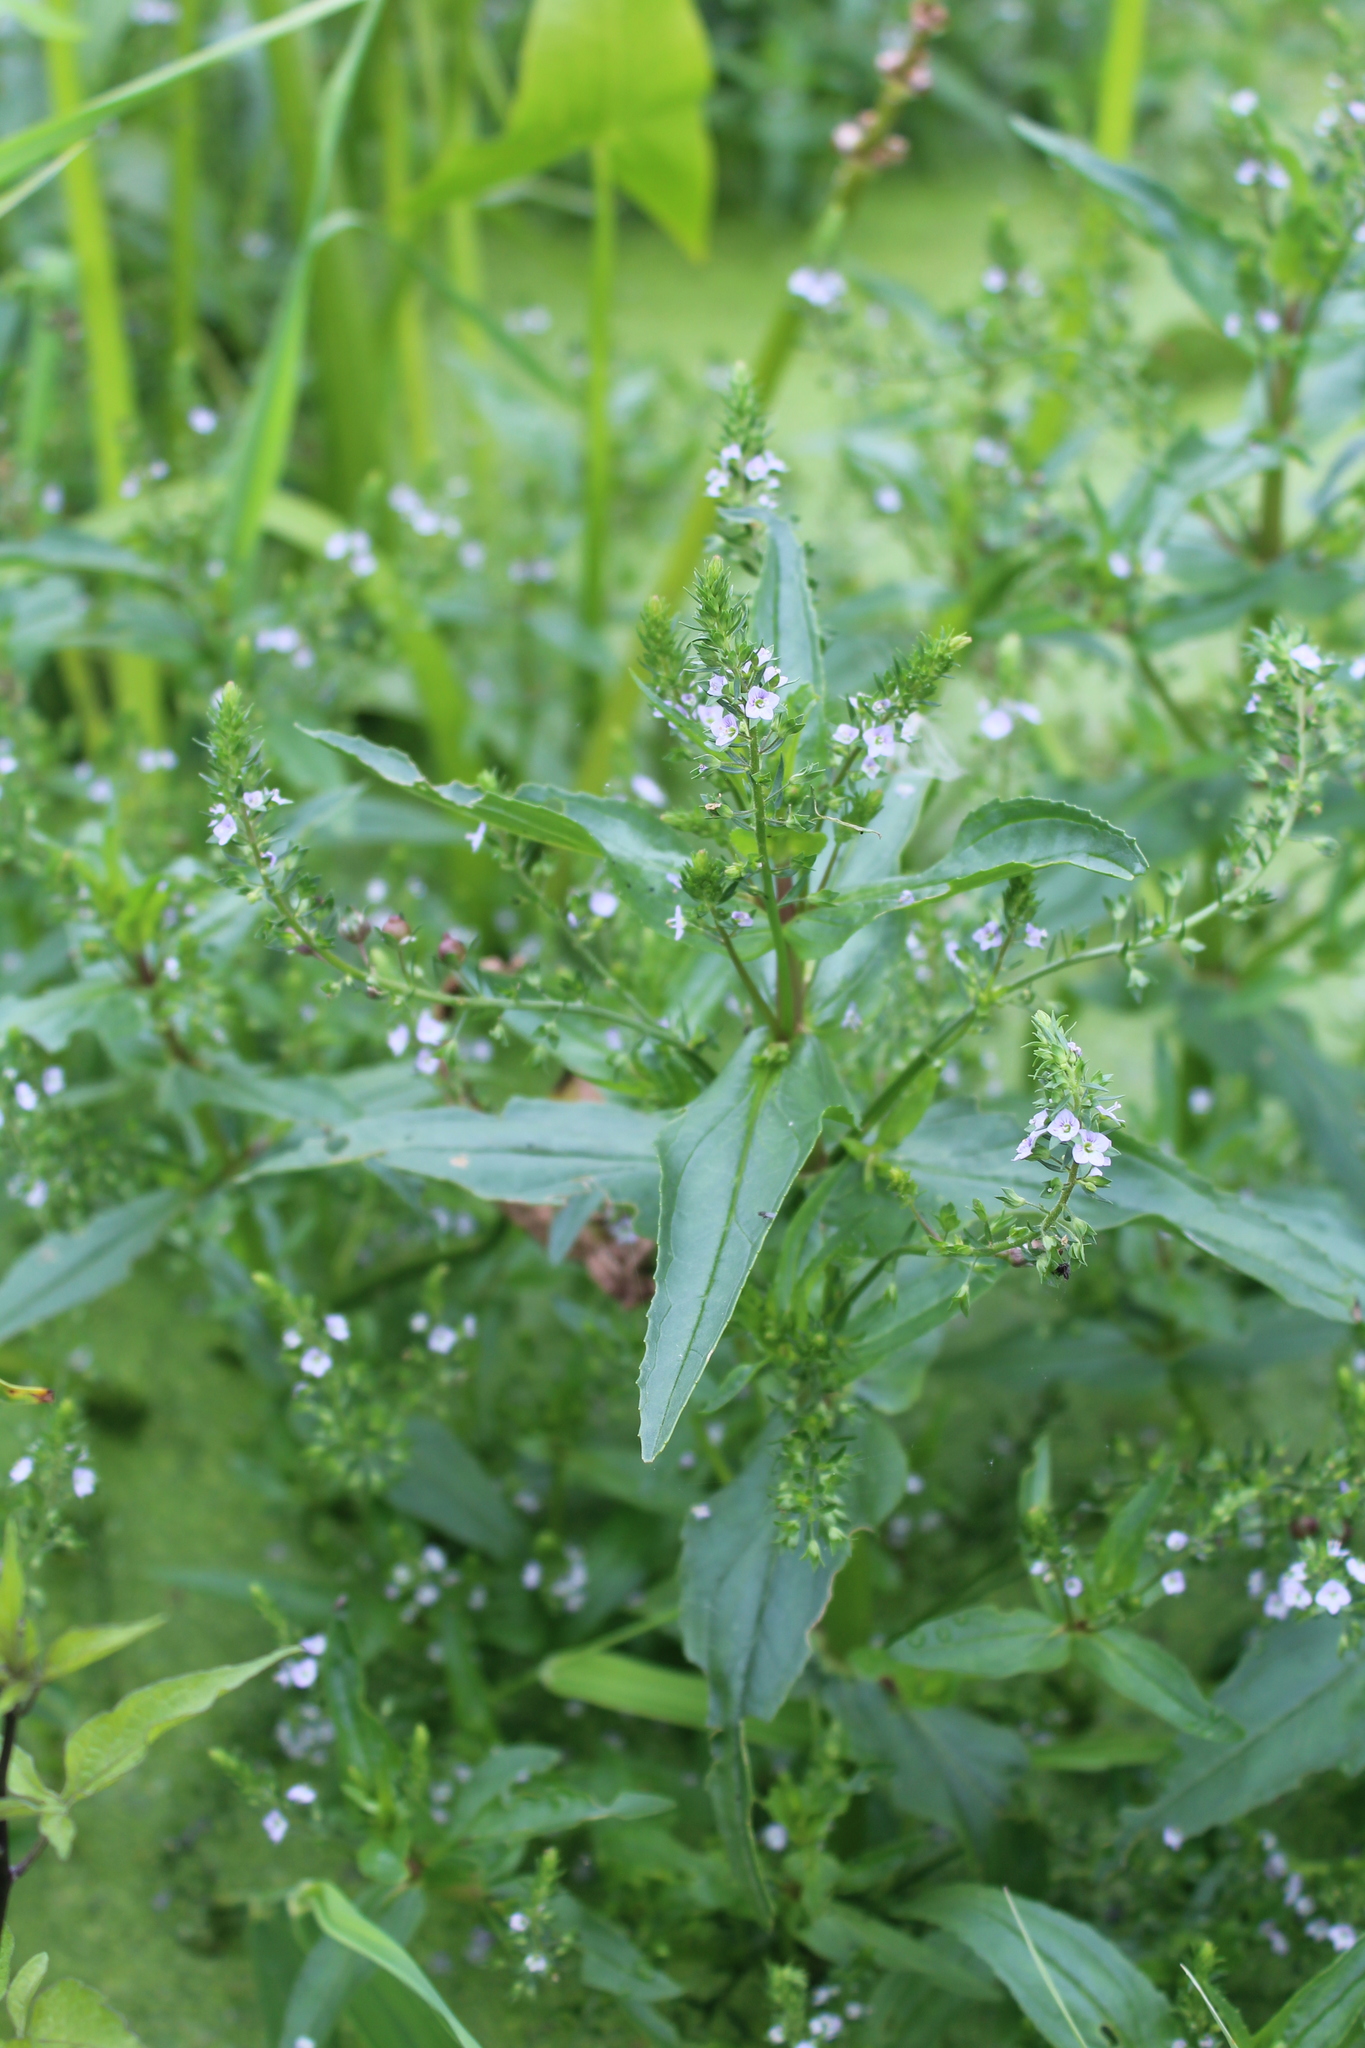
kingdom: Plantae
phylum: Tracheophyta
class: Magnoliopsida
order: Lamiales
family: Plantaginaceae
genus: Veronica
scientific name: Veronica anagallis-aquatica
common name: Water speedwell
